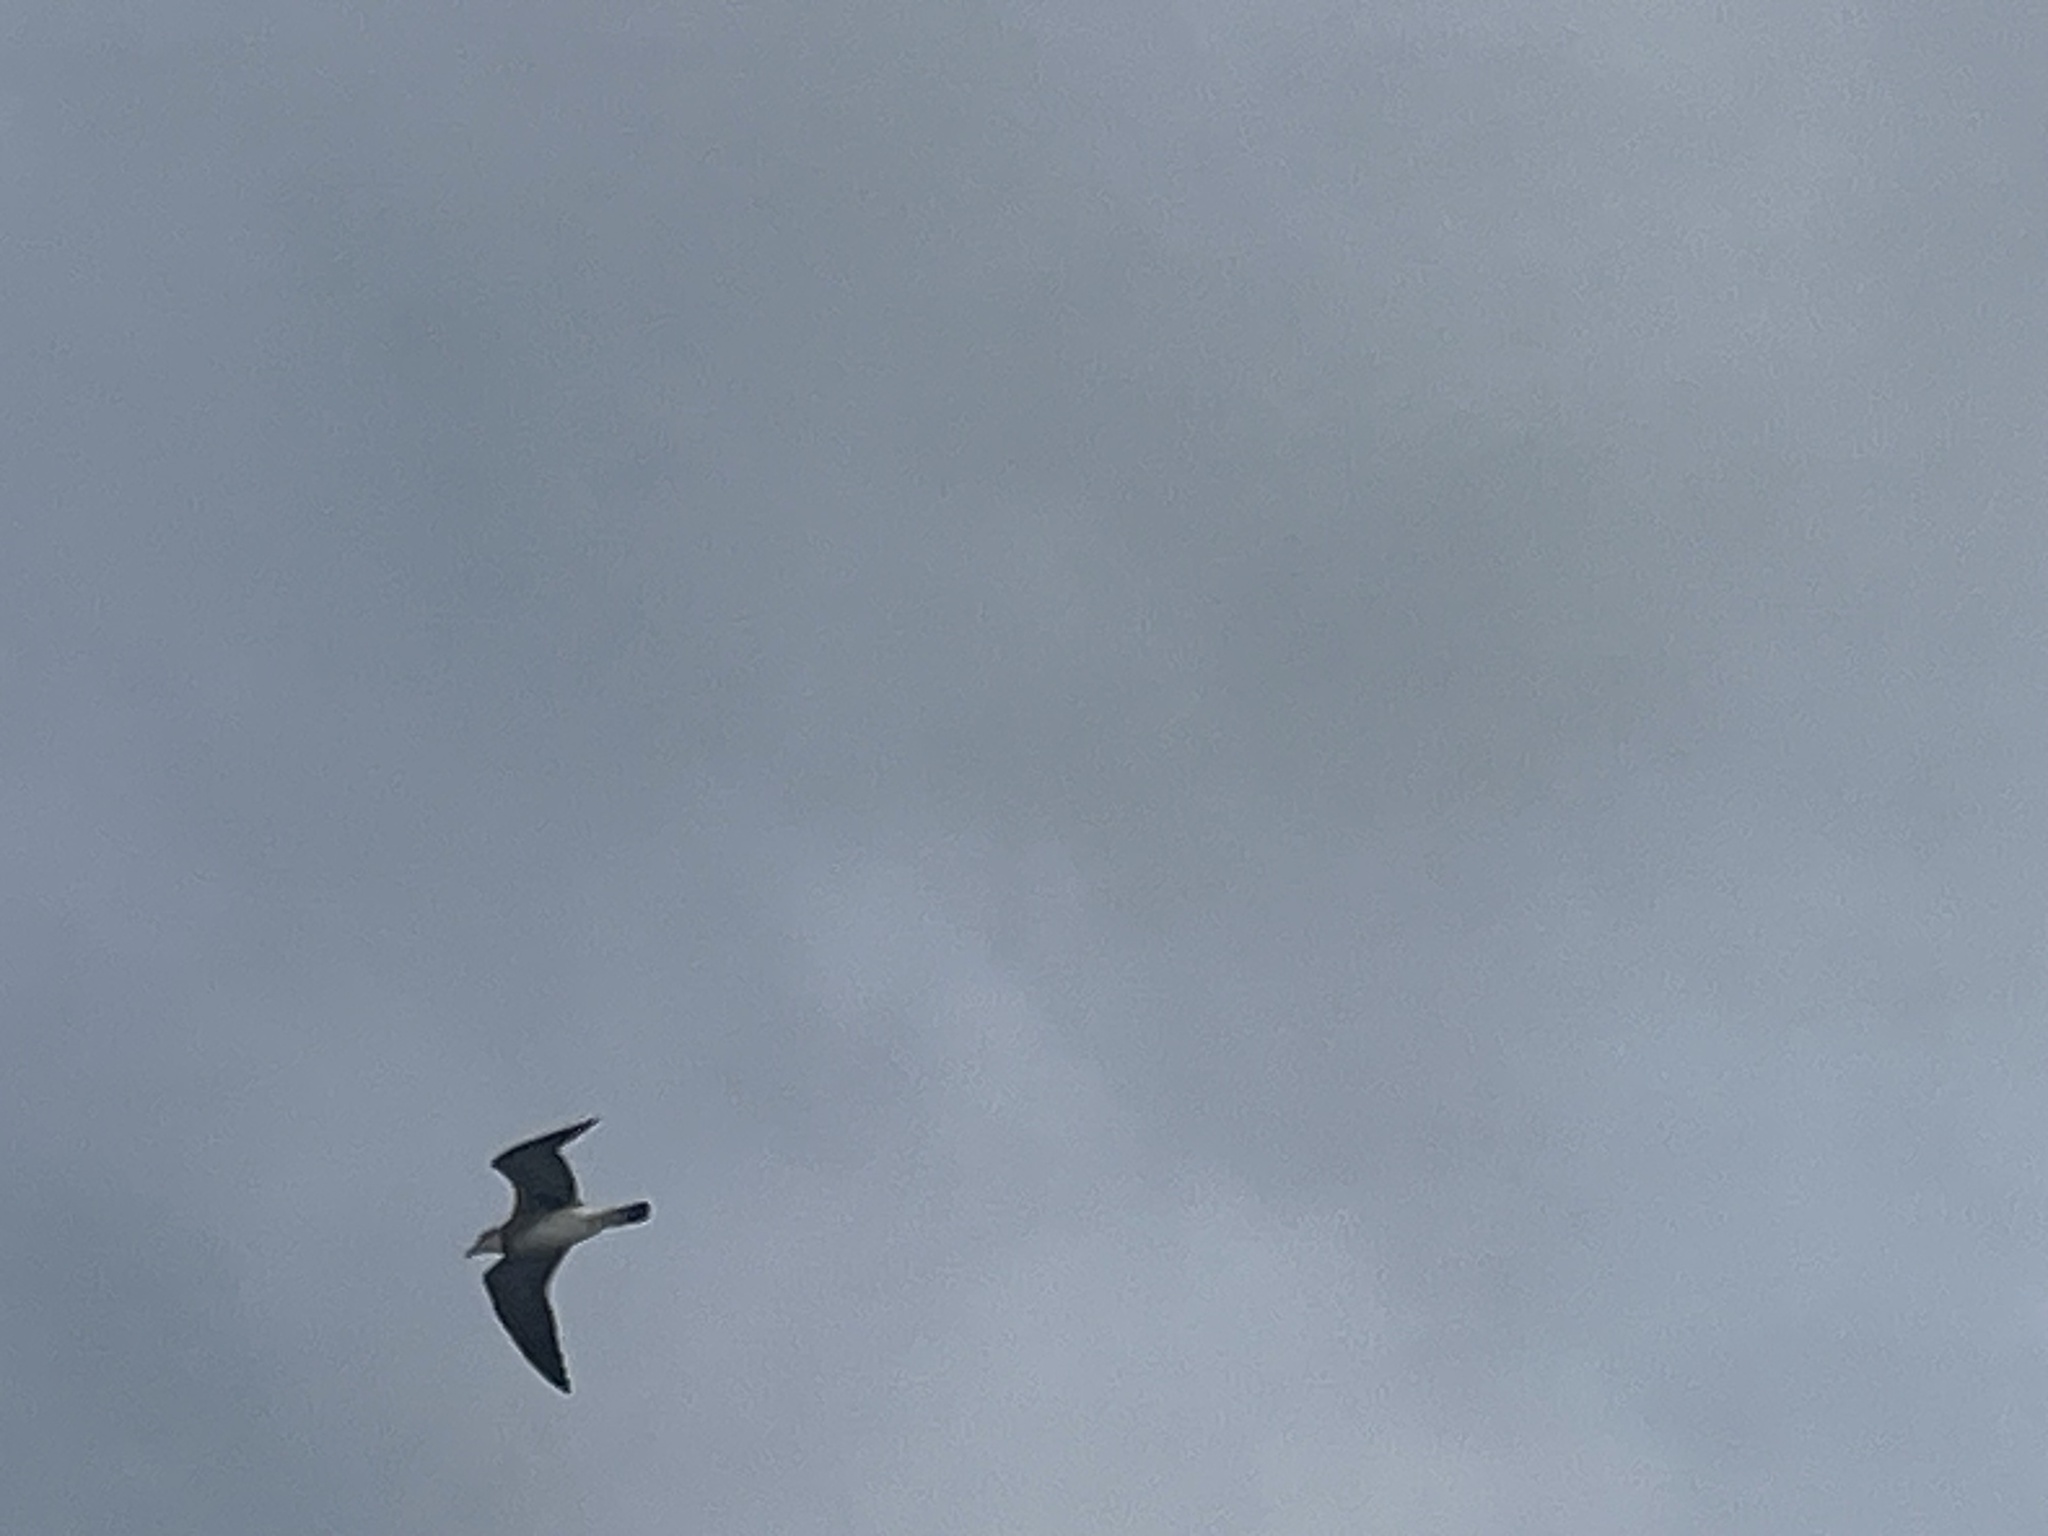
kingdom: Animalia
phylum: Chordata
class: Aves
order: Charadriiformes
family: Laridae
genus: Leucophaeus
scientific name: Leucophaeus atricilla
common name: Laughing gull
